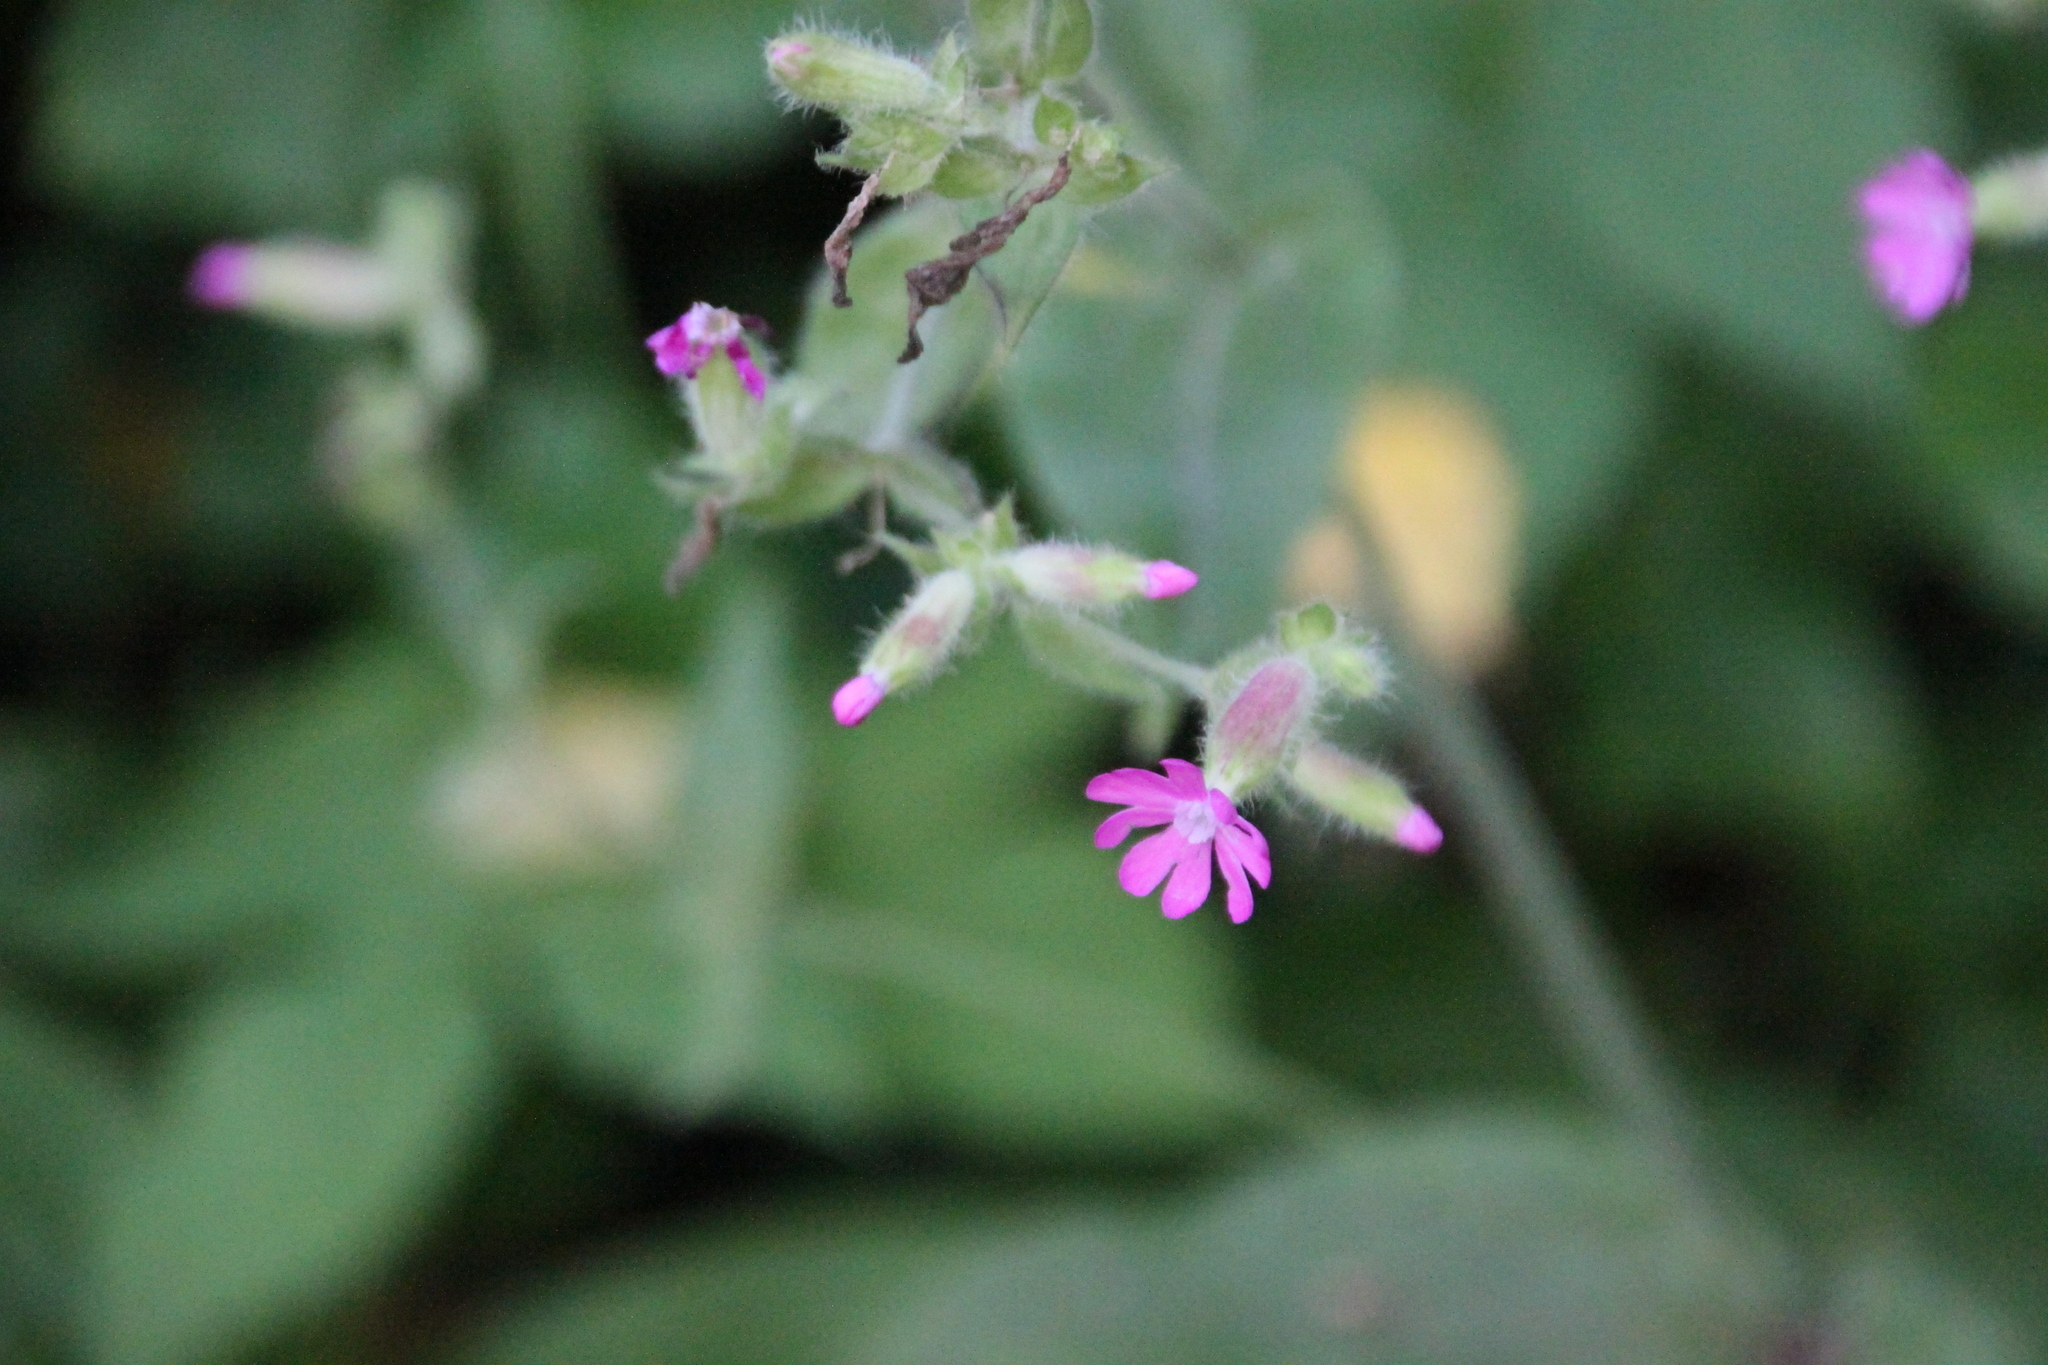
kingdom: Plantae
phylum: Tracheophyta
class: Magnoliopsida
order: Caryophyllales
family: Caryophyllaceae
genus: Silene
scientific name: Silene dioica
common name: Red campion
